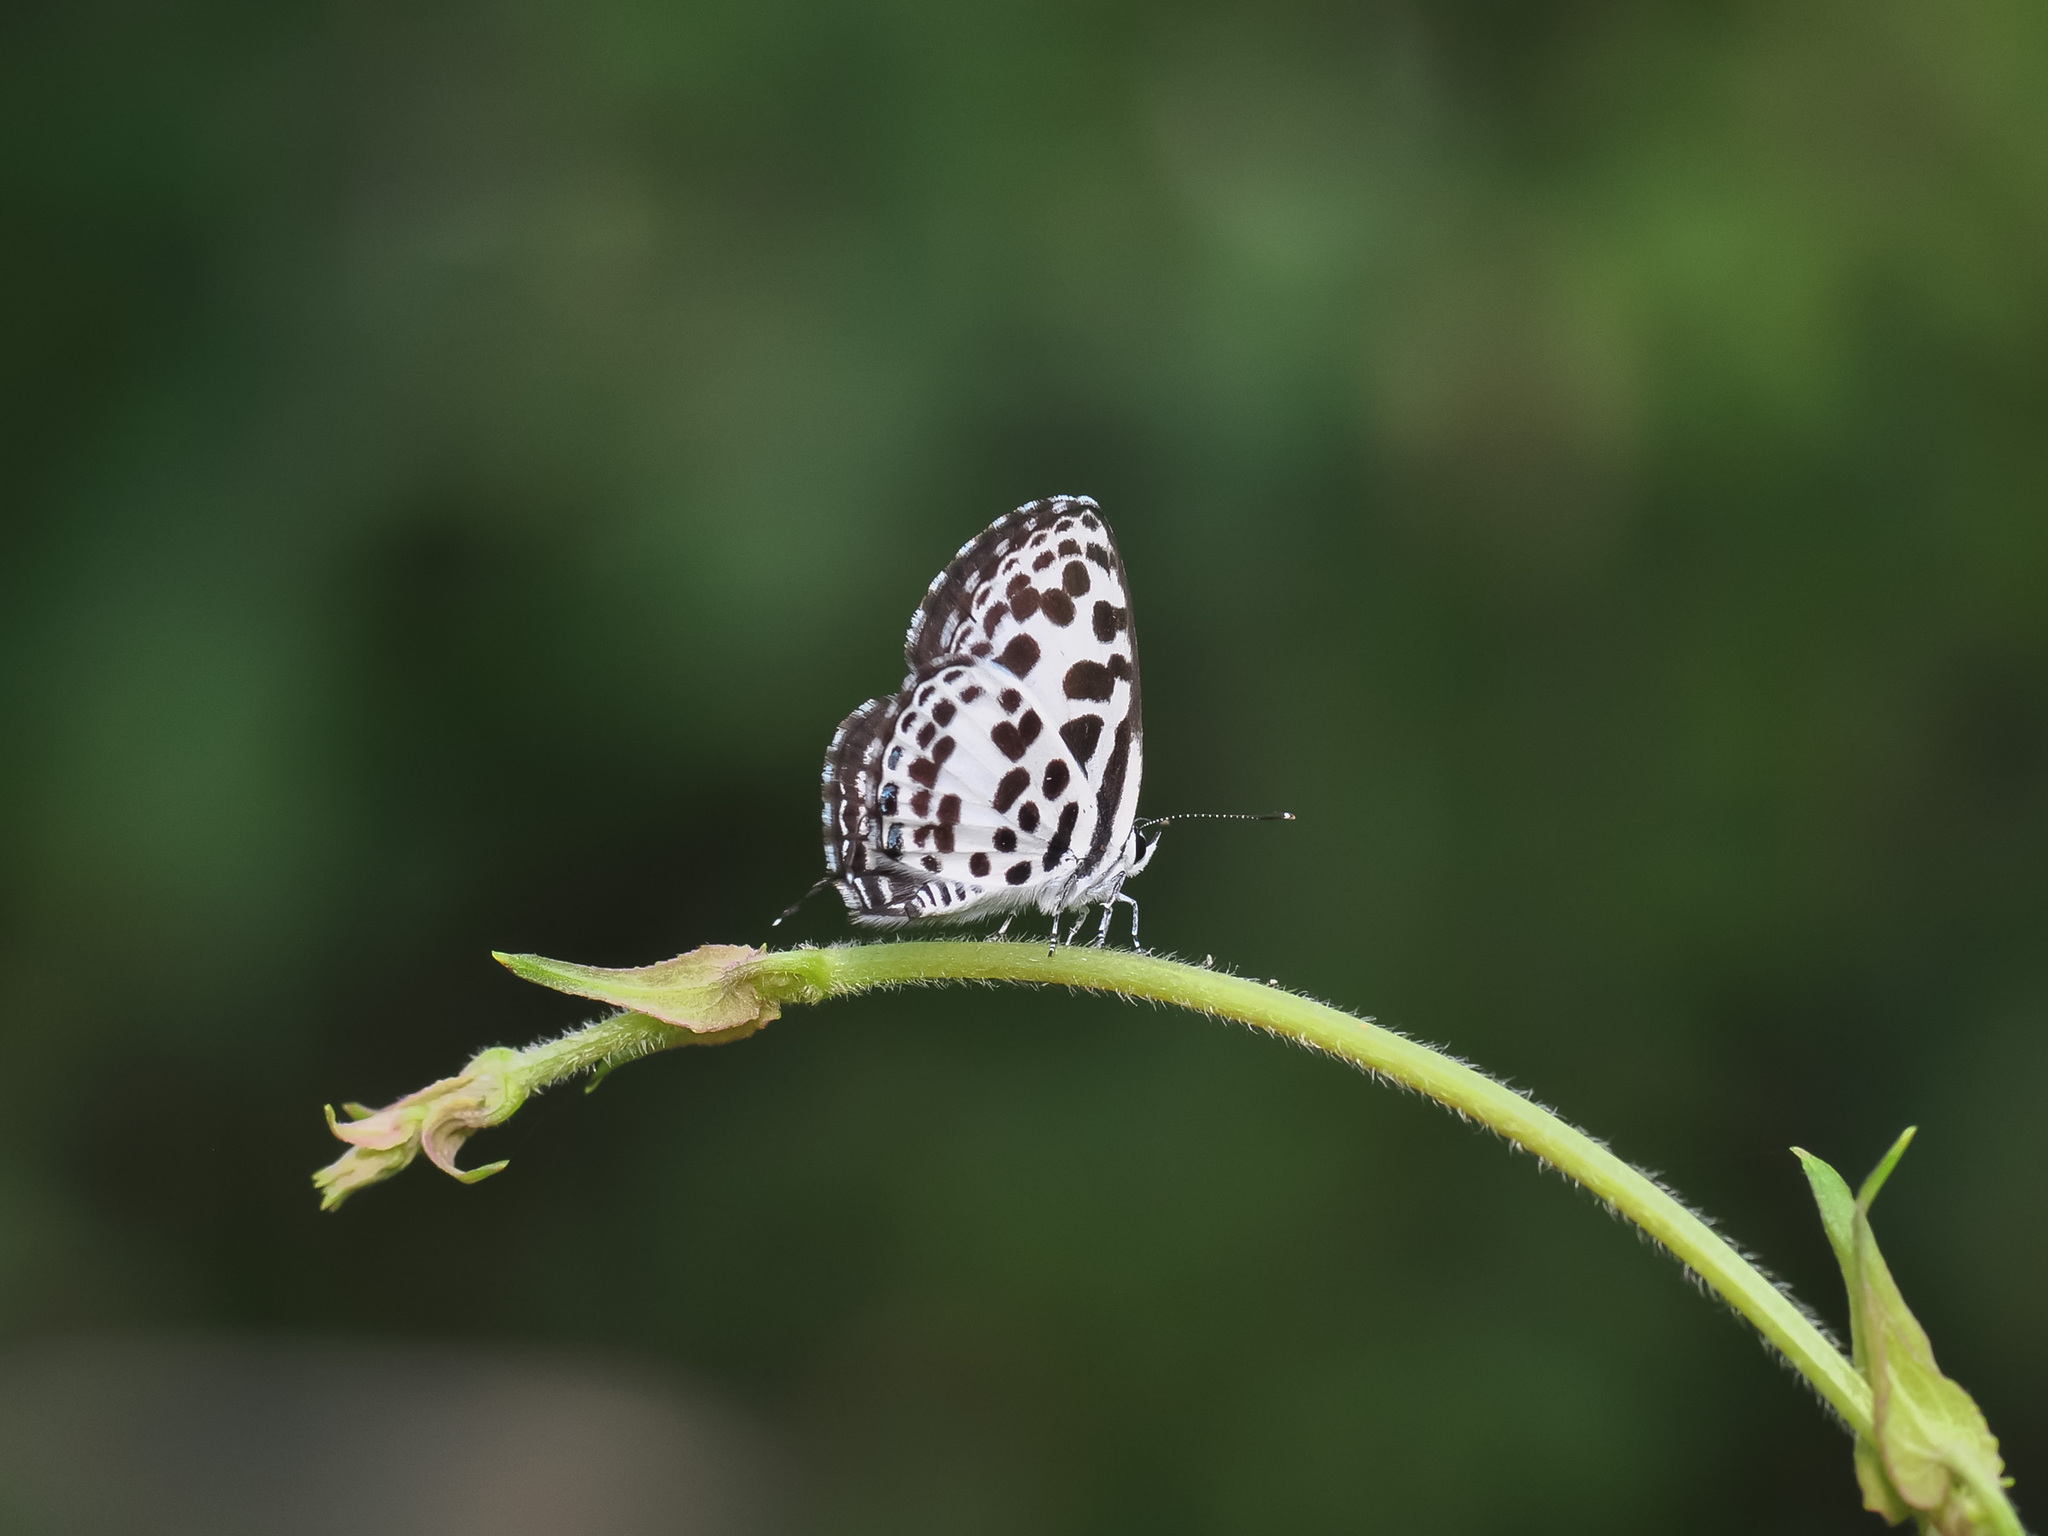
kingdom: Animalia
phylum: Arthropoda
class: Insecta
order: Lepidoptera
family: Lycaenidae
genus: Castalius
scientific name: Castalius rosimon
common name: Common pierrot
